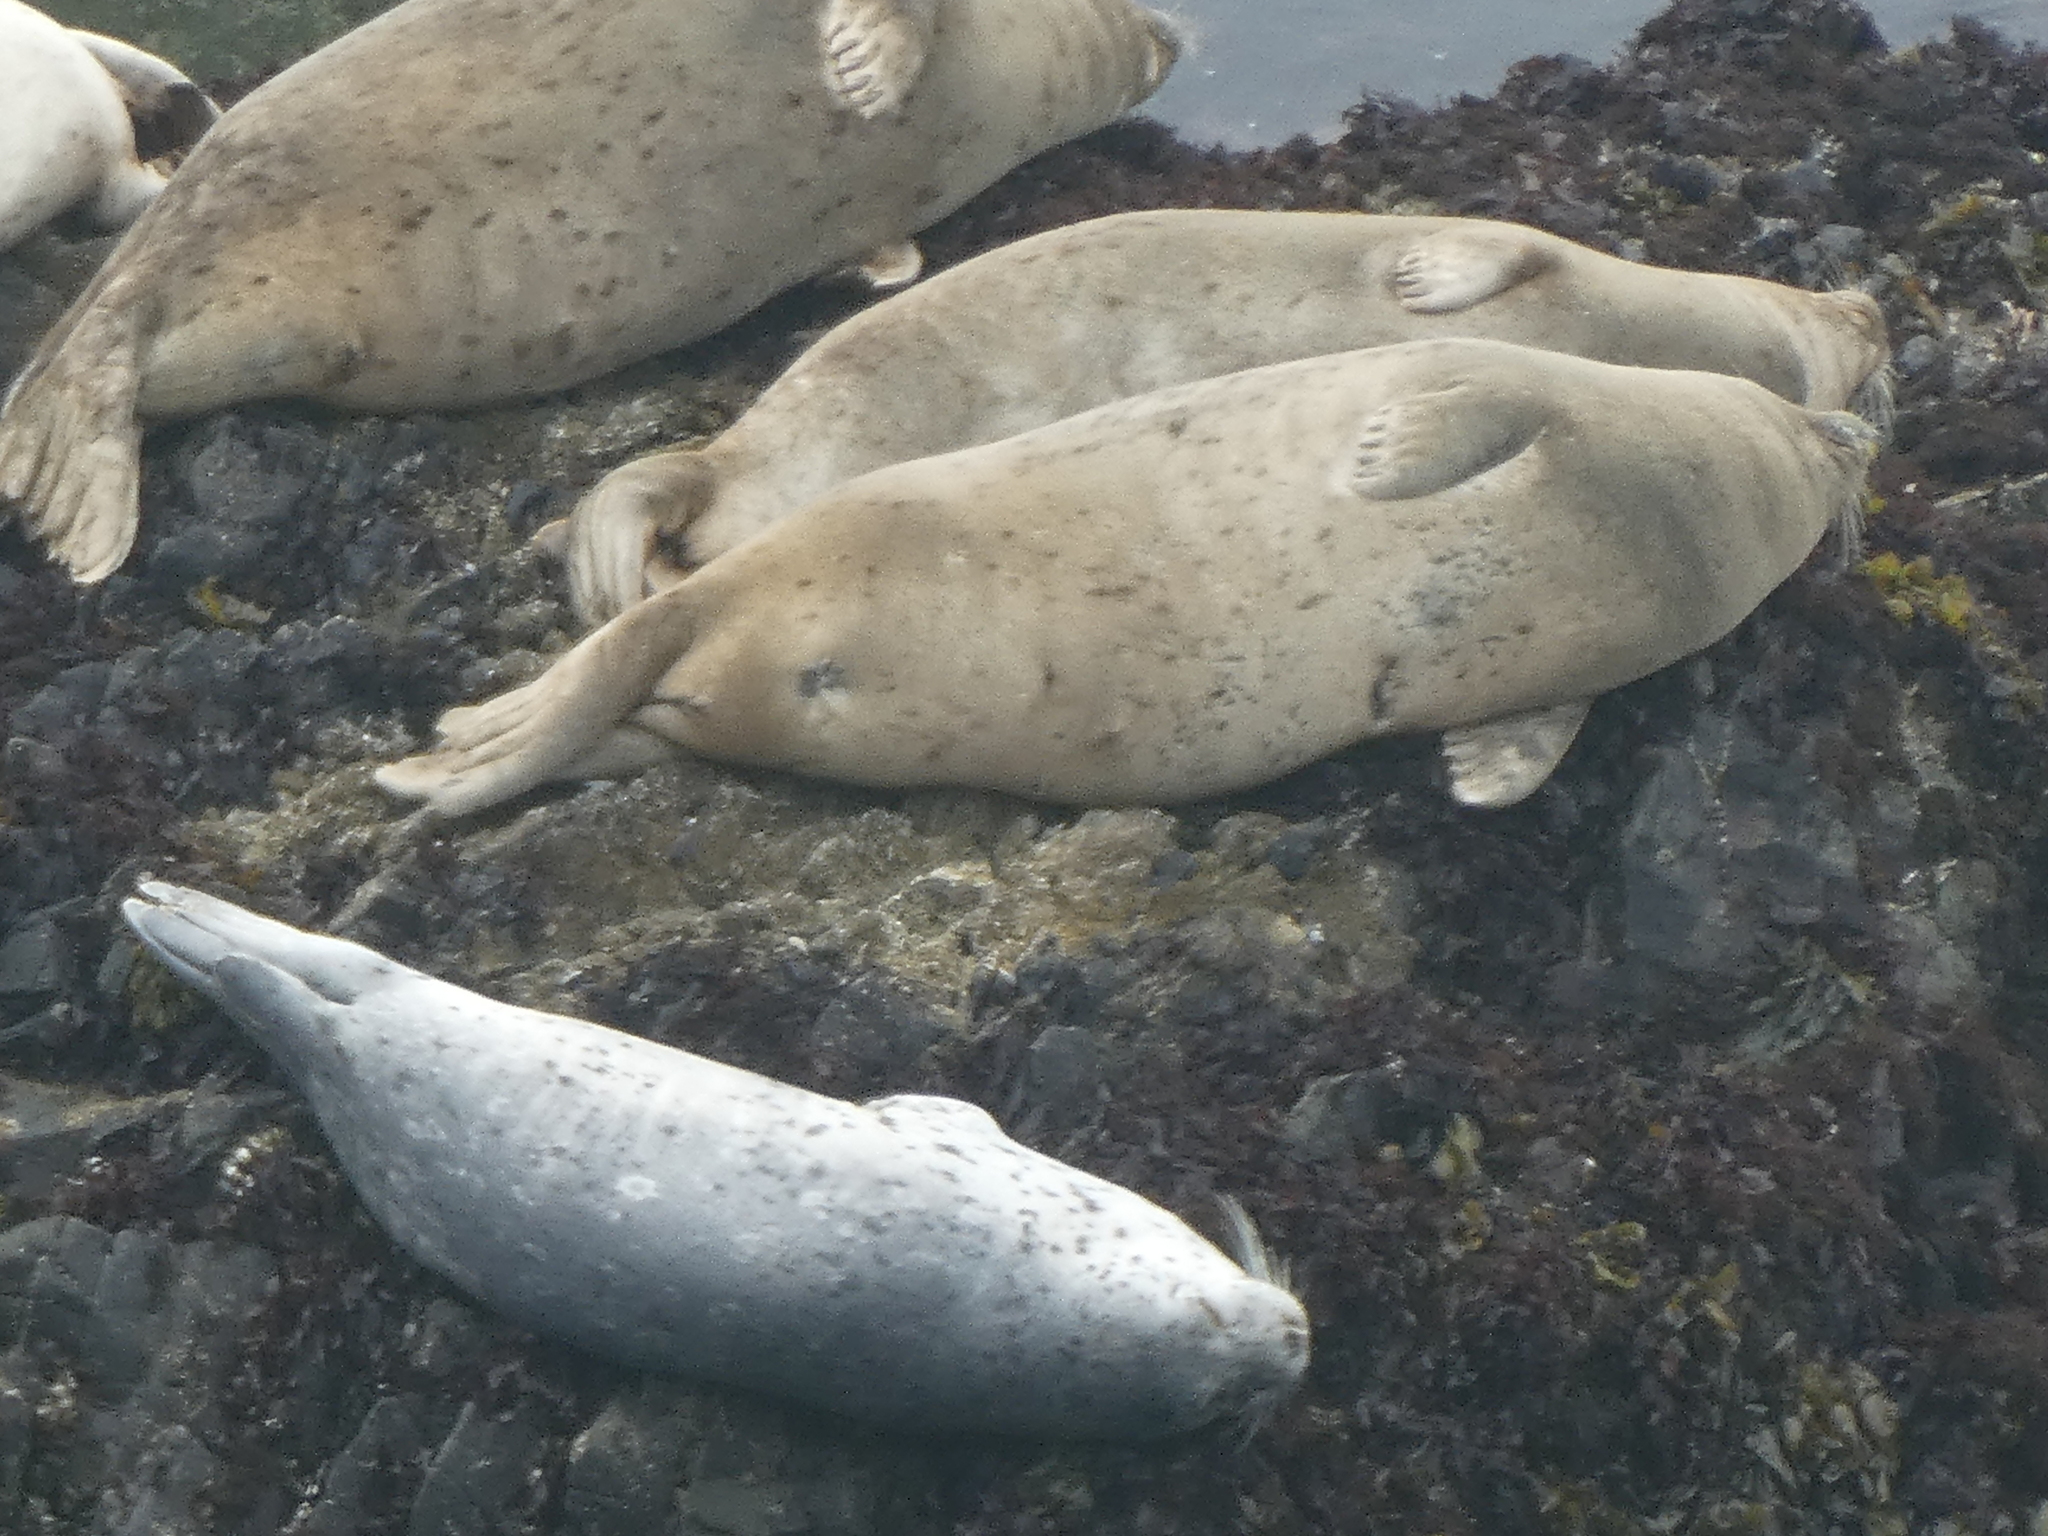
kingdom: Animalia
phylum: Chordata
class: Mammalia
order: Carnivora
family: Phocidae
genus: Phoca
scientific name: Phoca vitulina
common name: Harbor seal
